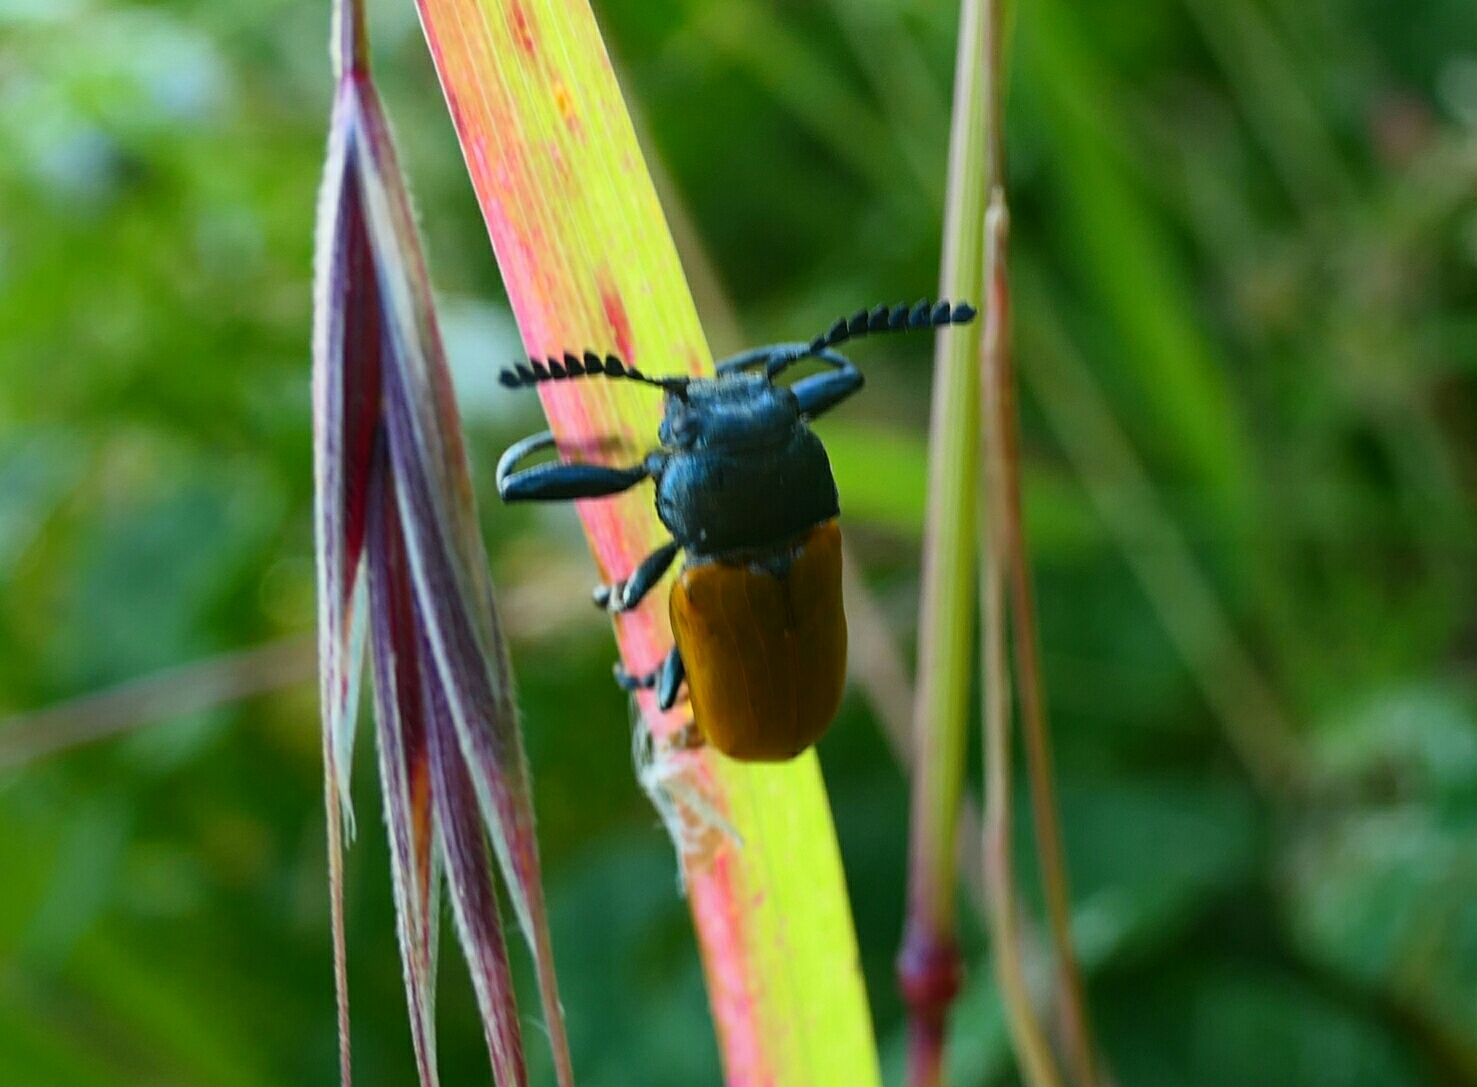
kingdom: Animalia
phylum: Arthropoda
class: Insecta
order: Coleoptera
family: Chrysomelidae
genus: Labidostomis
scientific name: Labidostomis taxicornis
